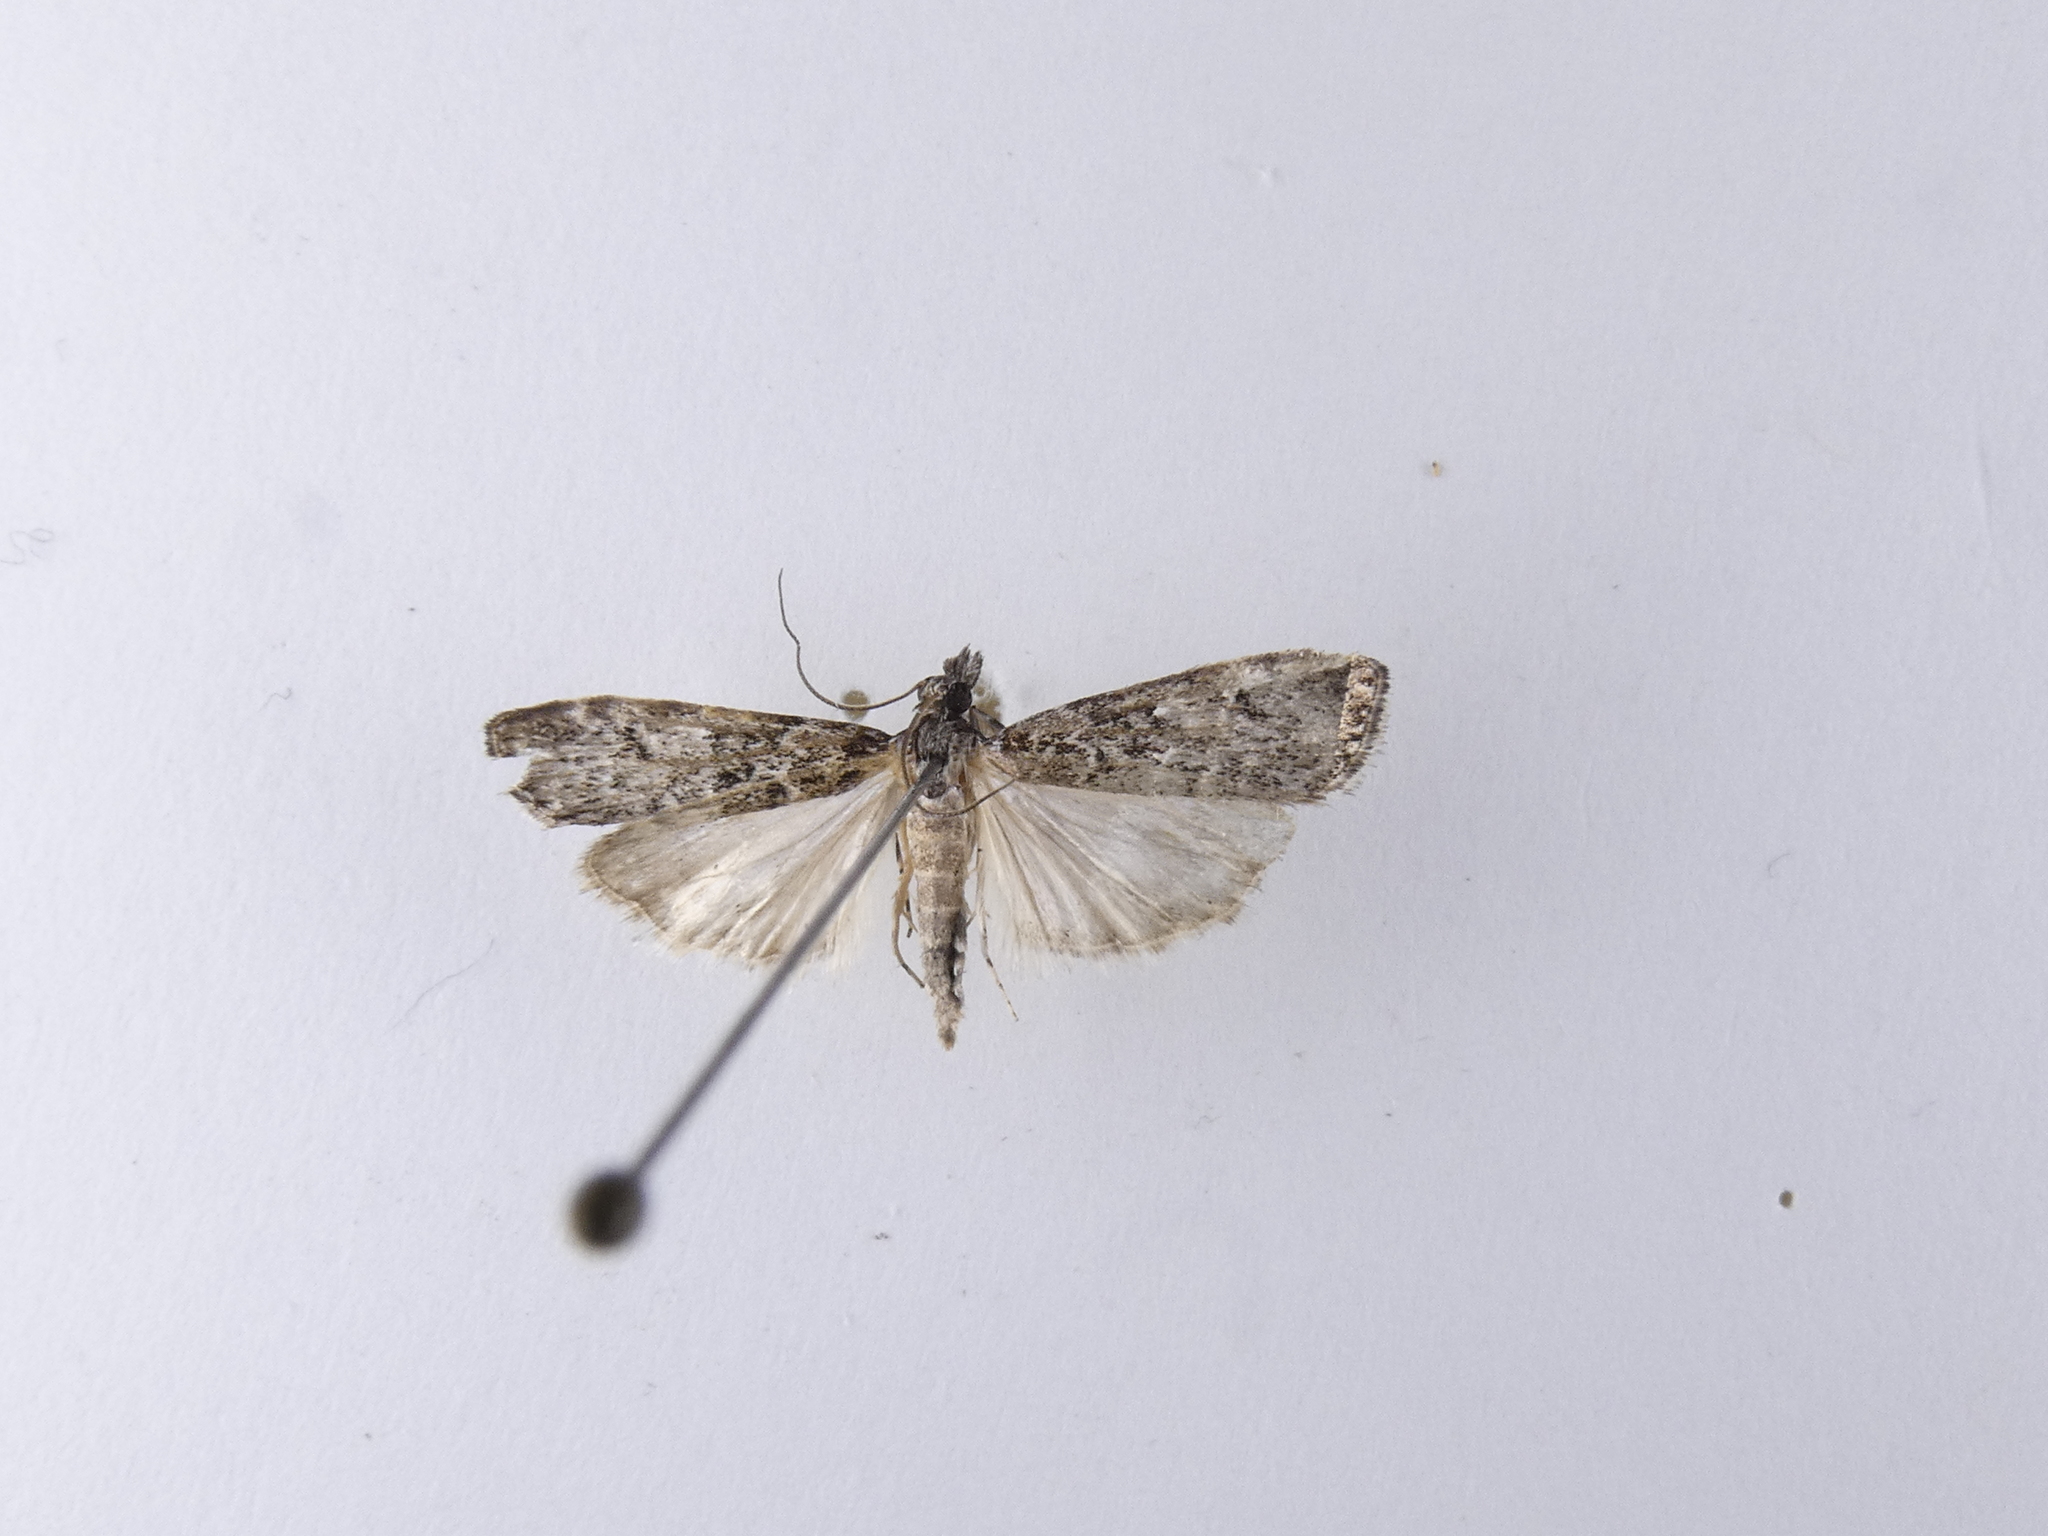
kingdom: Animalia
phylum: Arthropoda
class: Insecta
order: Lepidoptera
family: Crambidae
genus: Eudonia
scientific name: Eudonia philerga
